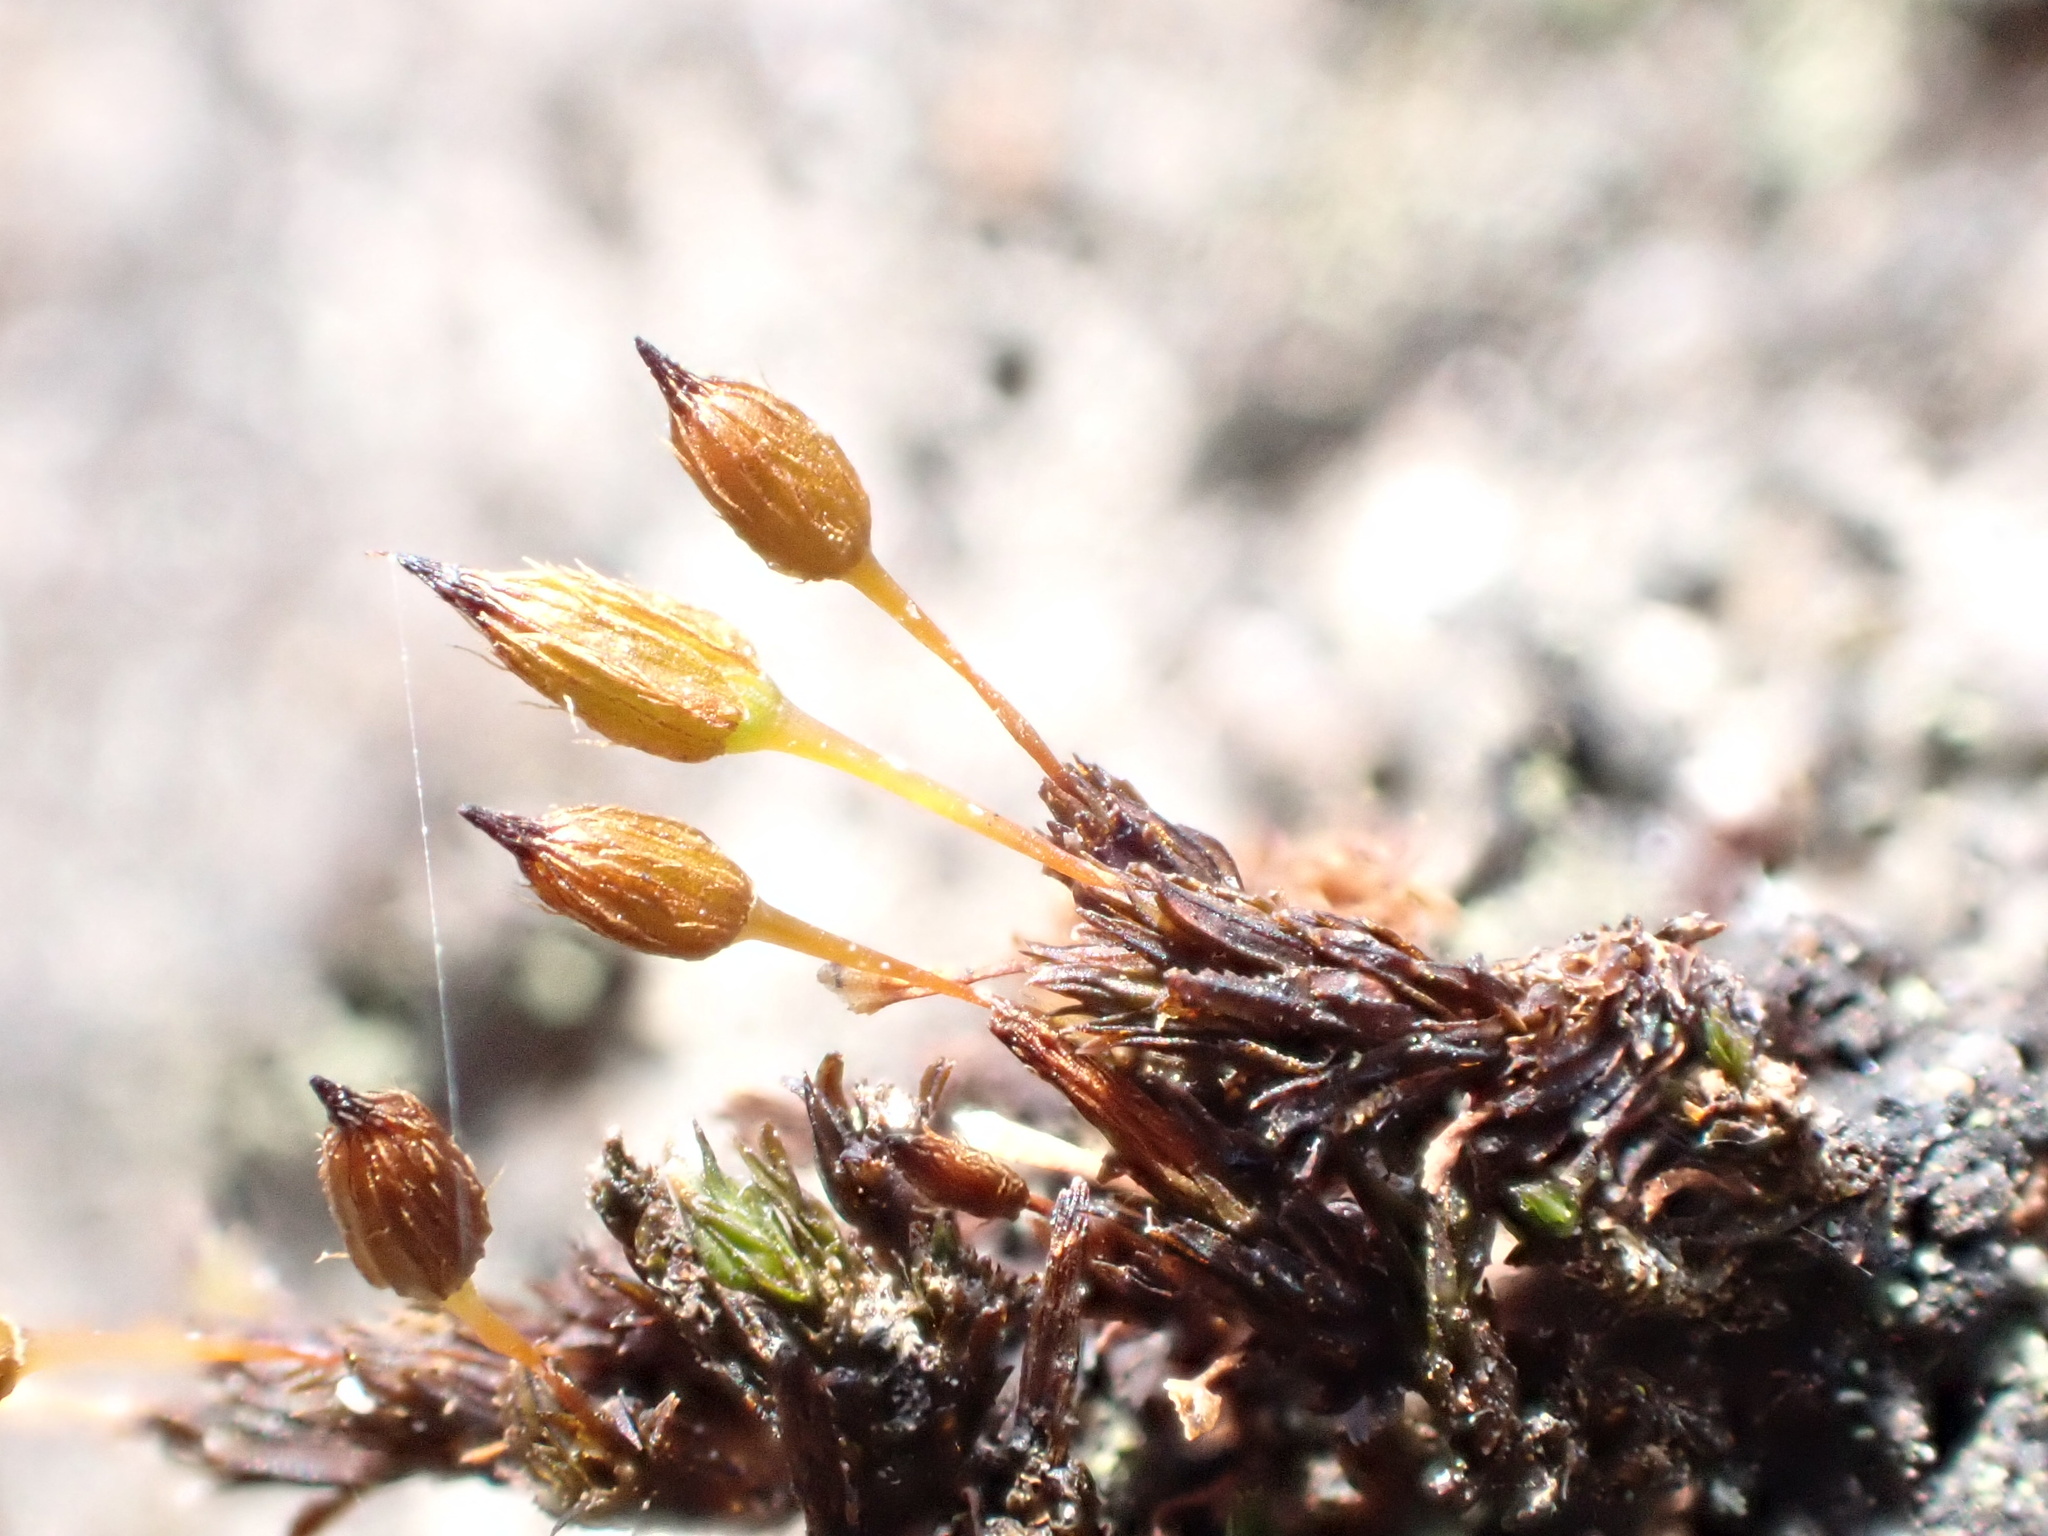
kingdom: Plantae
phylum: Bryophyta
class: Bryopsida
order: Orthotrichales
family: Orthotrichaceae
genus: Orthotrichum
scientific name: Orthotrichum anomalum
